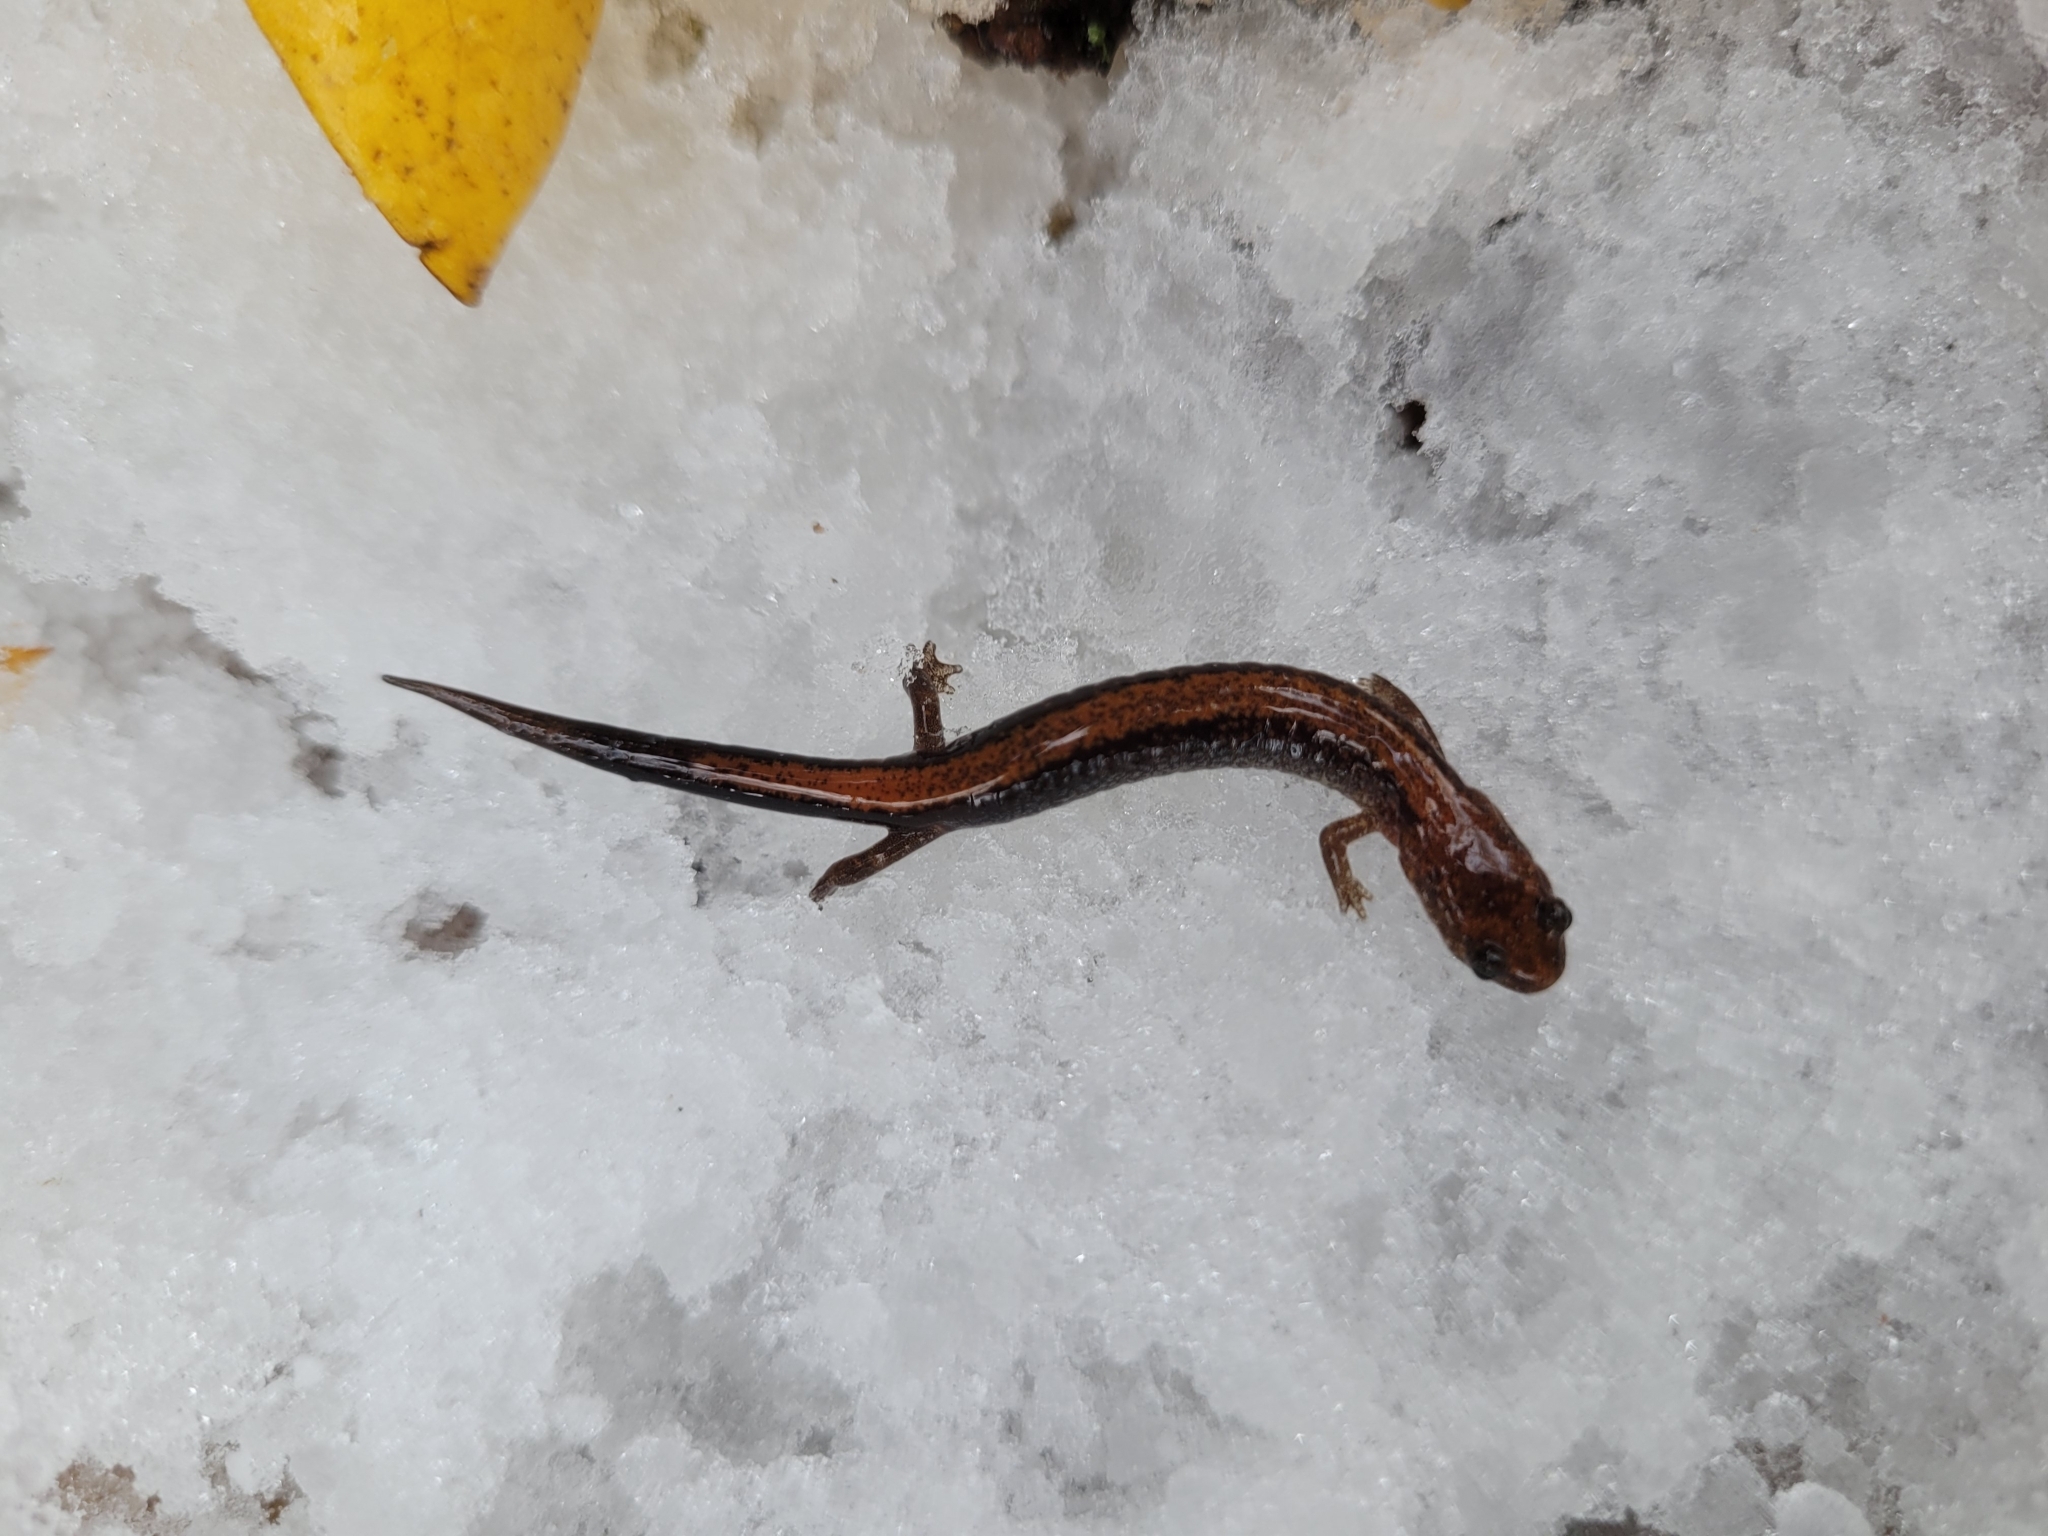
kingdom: Animalia
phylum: Chordata
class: Amphibia
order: Caudata
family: Plethodontidae
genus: Plethodon
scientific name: Plethodon cinereus
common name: Redback salamander
